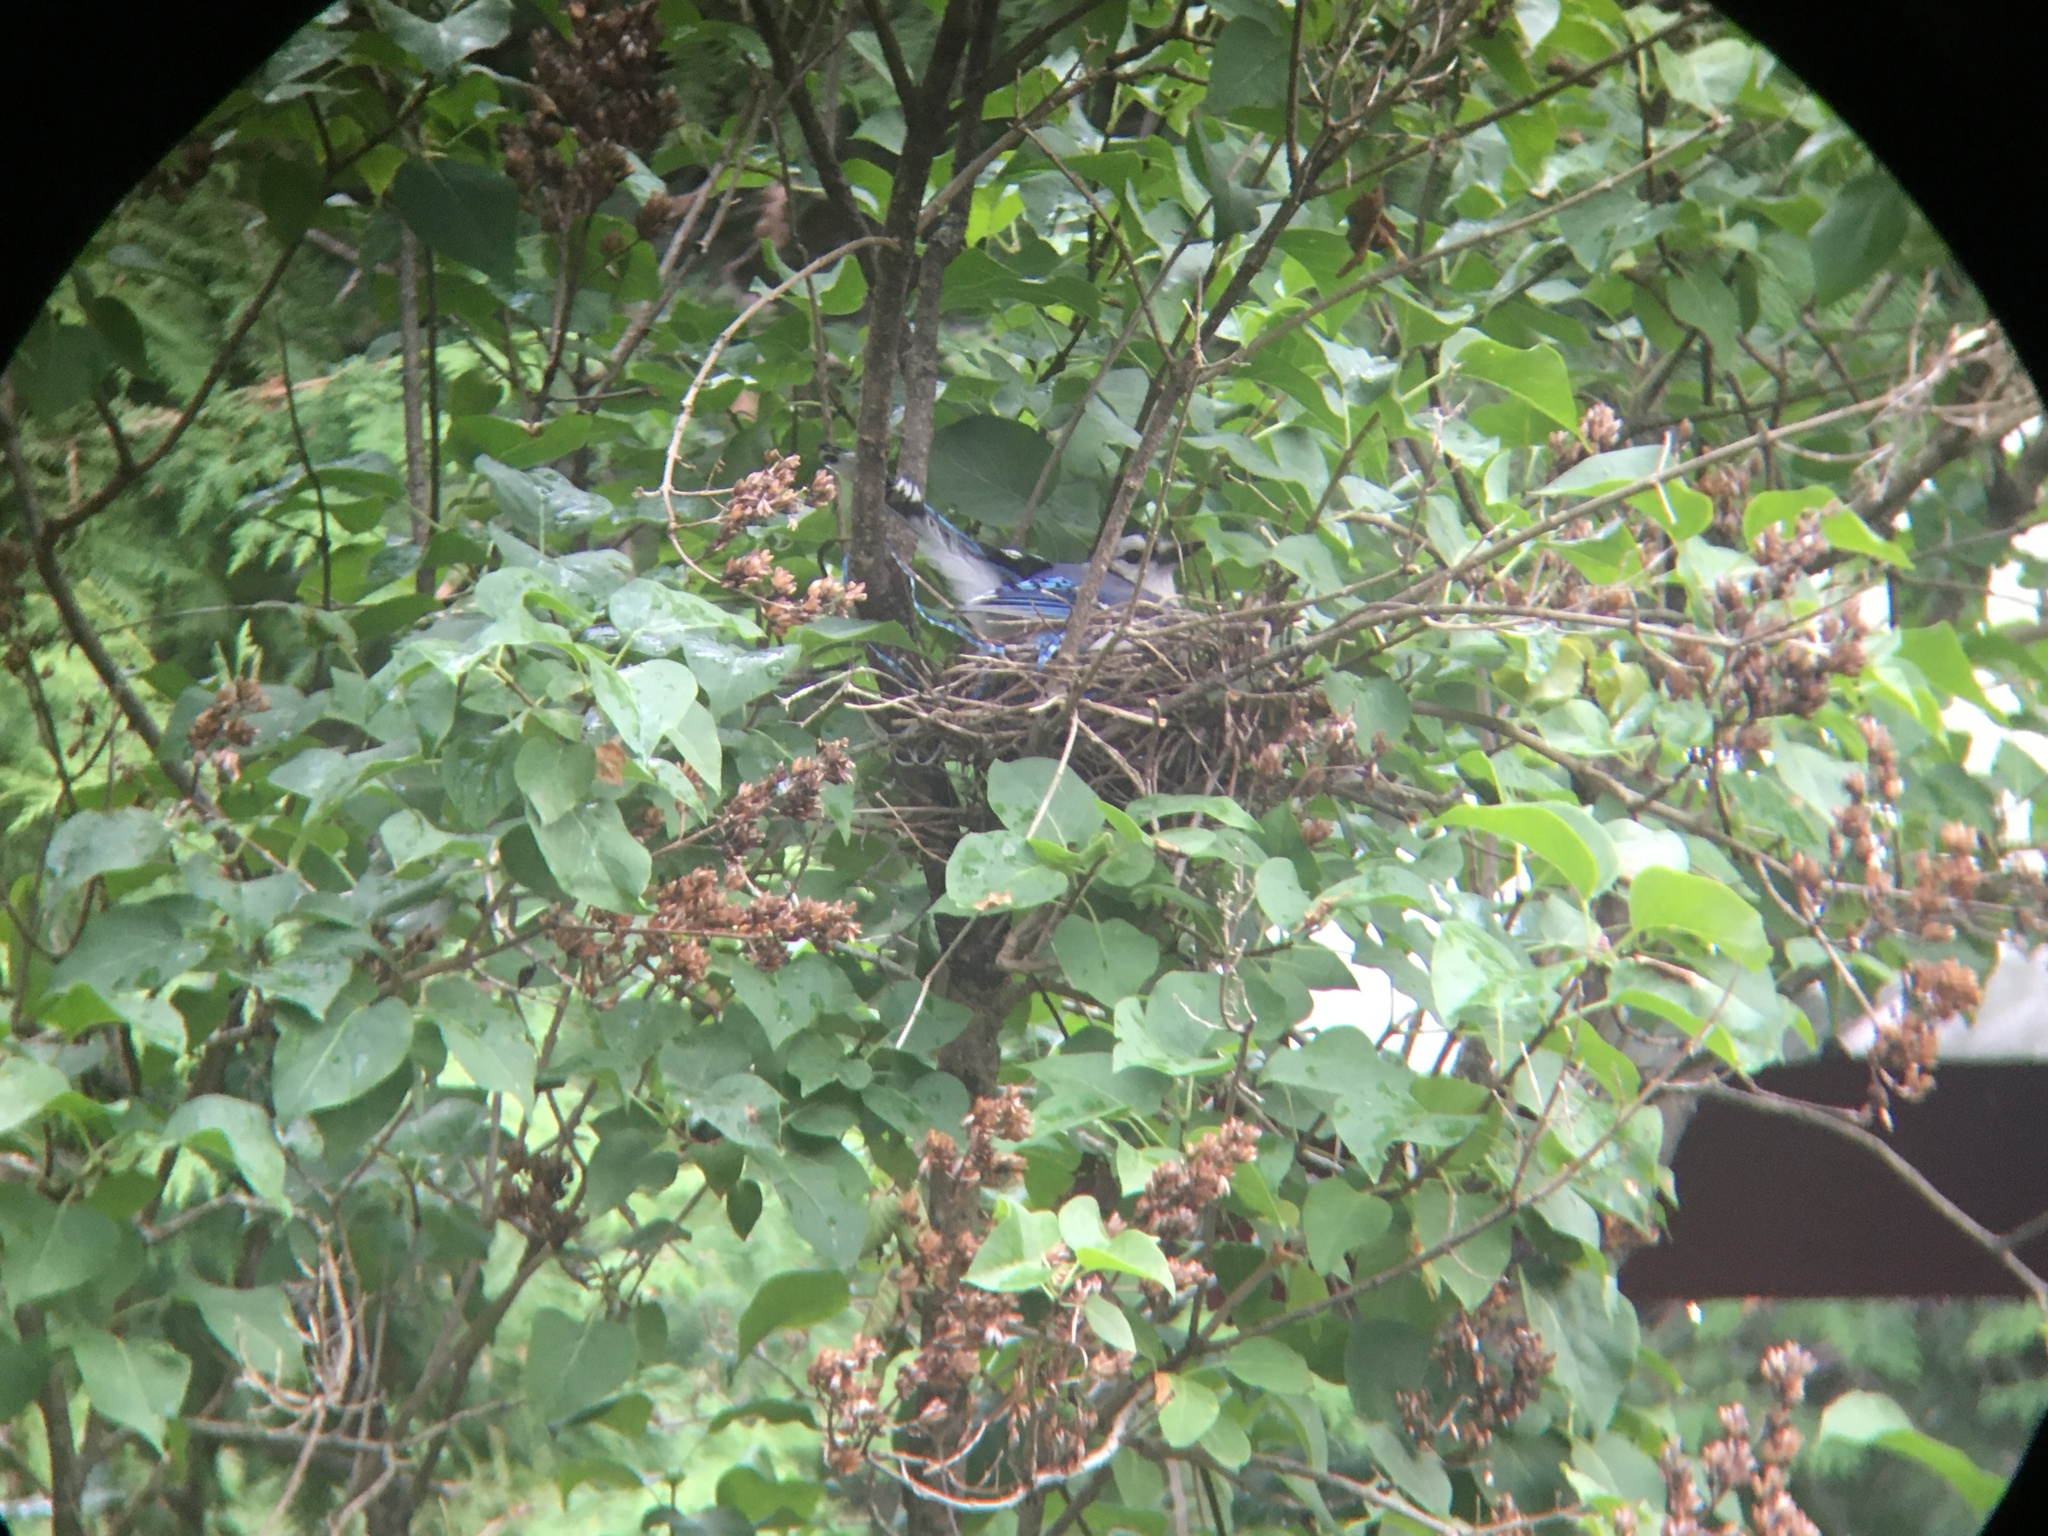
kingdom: Animalia
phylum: Chordata
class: Aves
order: Passeriformes
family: Corvidae
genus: Cyanocitta
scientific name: Cyanocitta cristata
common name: Blue jay
